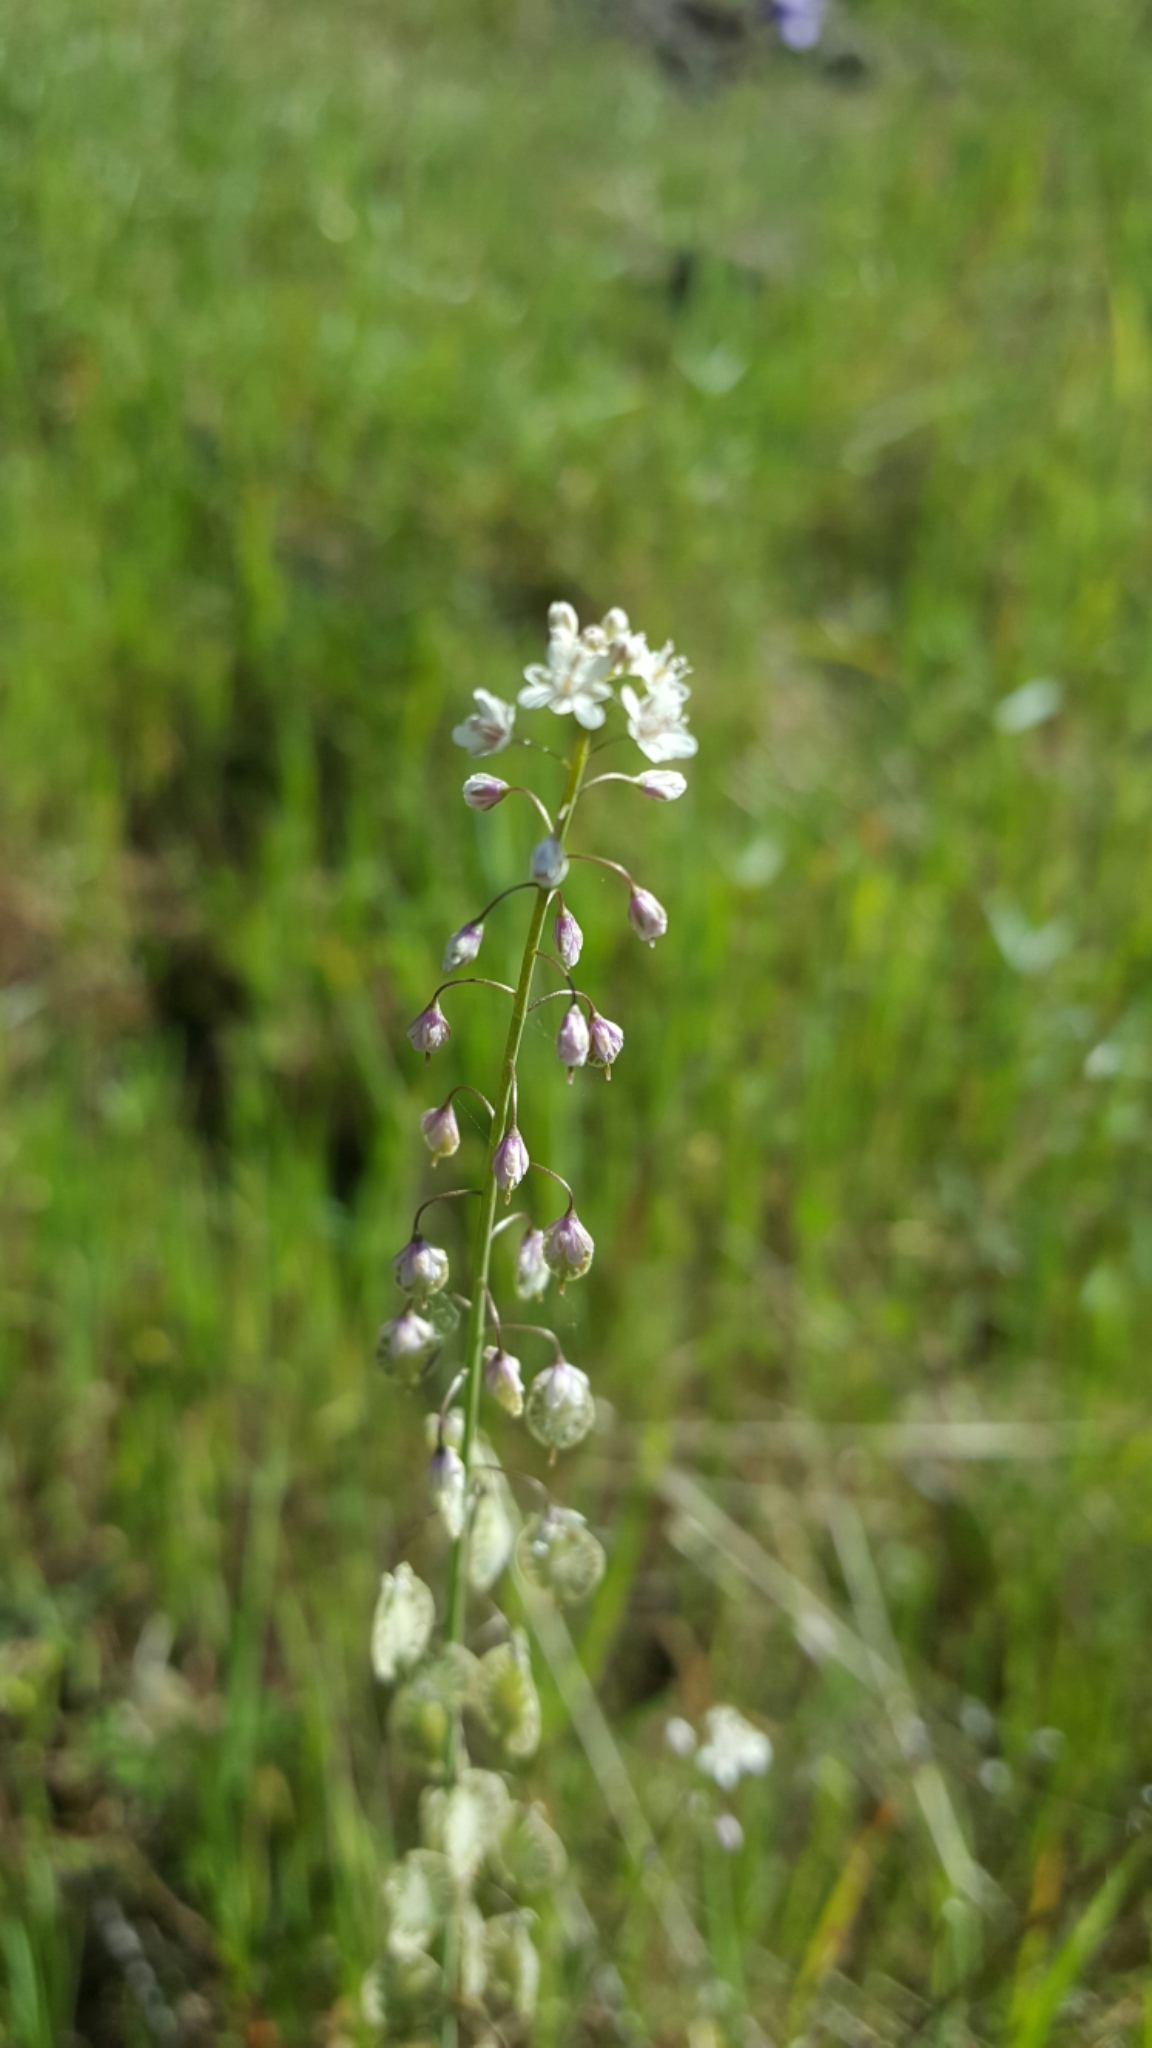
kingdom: Plantae
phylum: Tracheophyta
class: Magnoliopsida
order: Brassicales
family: Brassicaceae
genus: Thysanocarpus
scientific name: Thysanocarpus curvipes
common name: Sand fringepod
